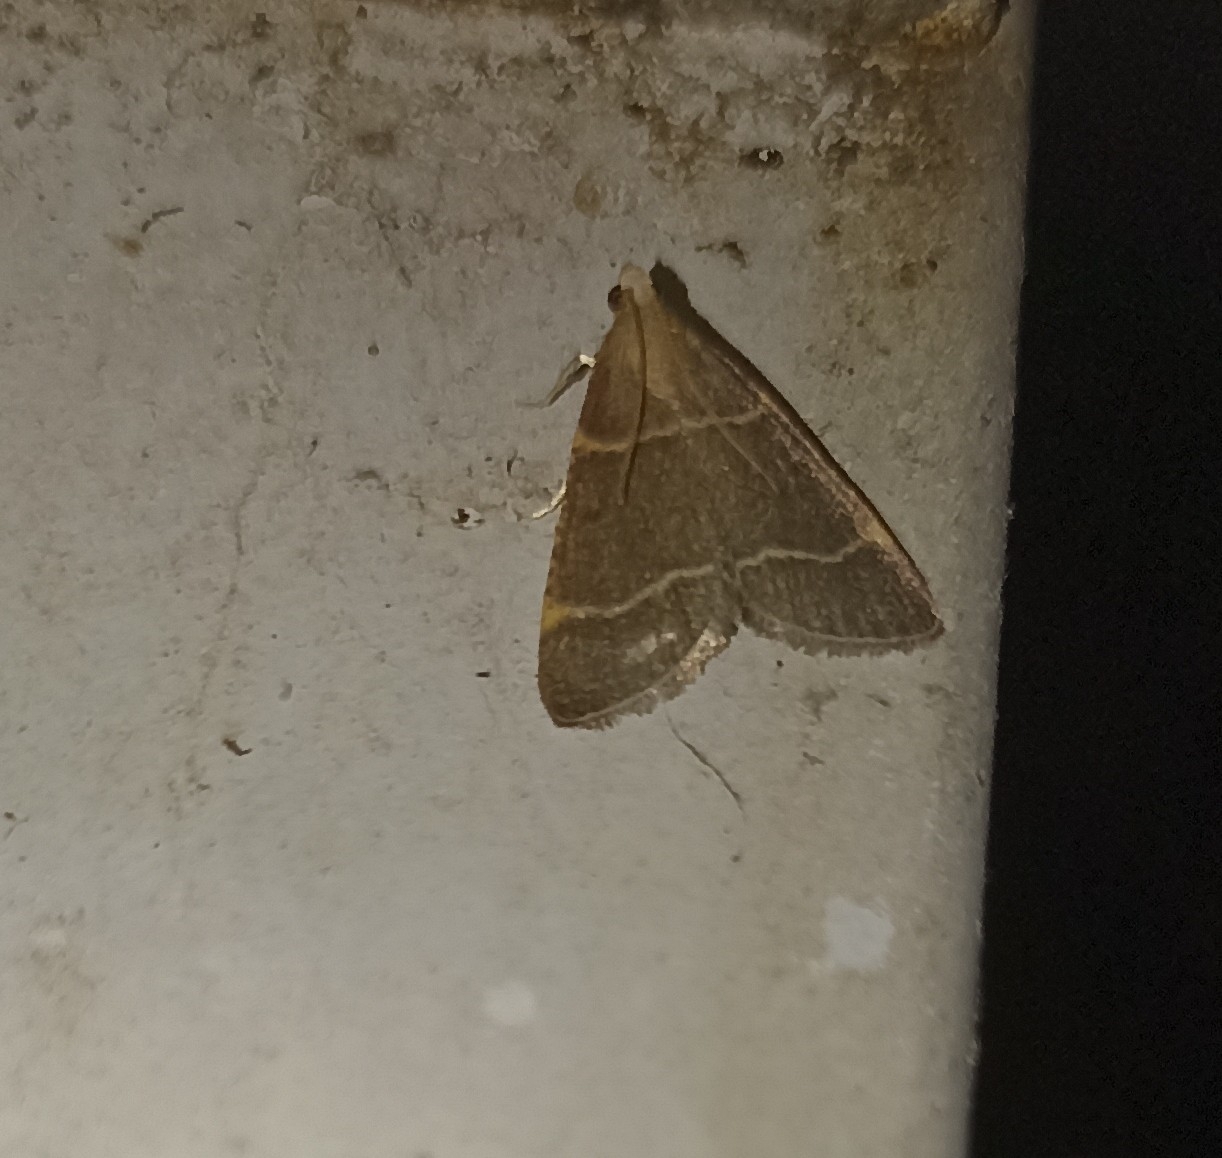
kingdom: Animalia
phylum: Arthropoda
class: Insecta
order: Lepidoptera
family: Pyralidae
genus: Hypsopygia
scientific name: Hypsopygia glaucinalis
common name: Double-striped tabby
